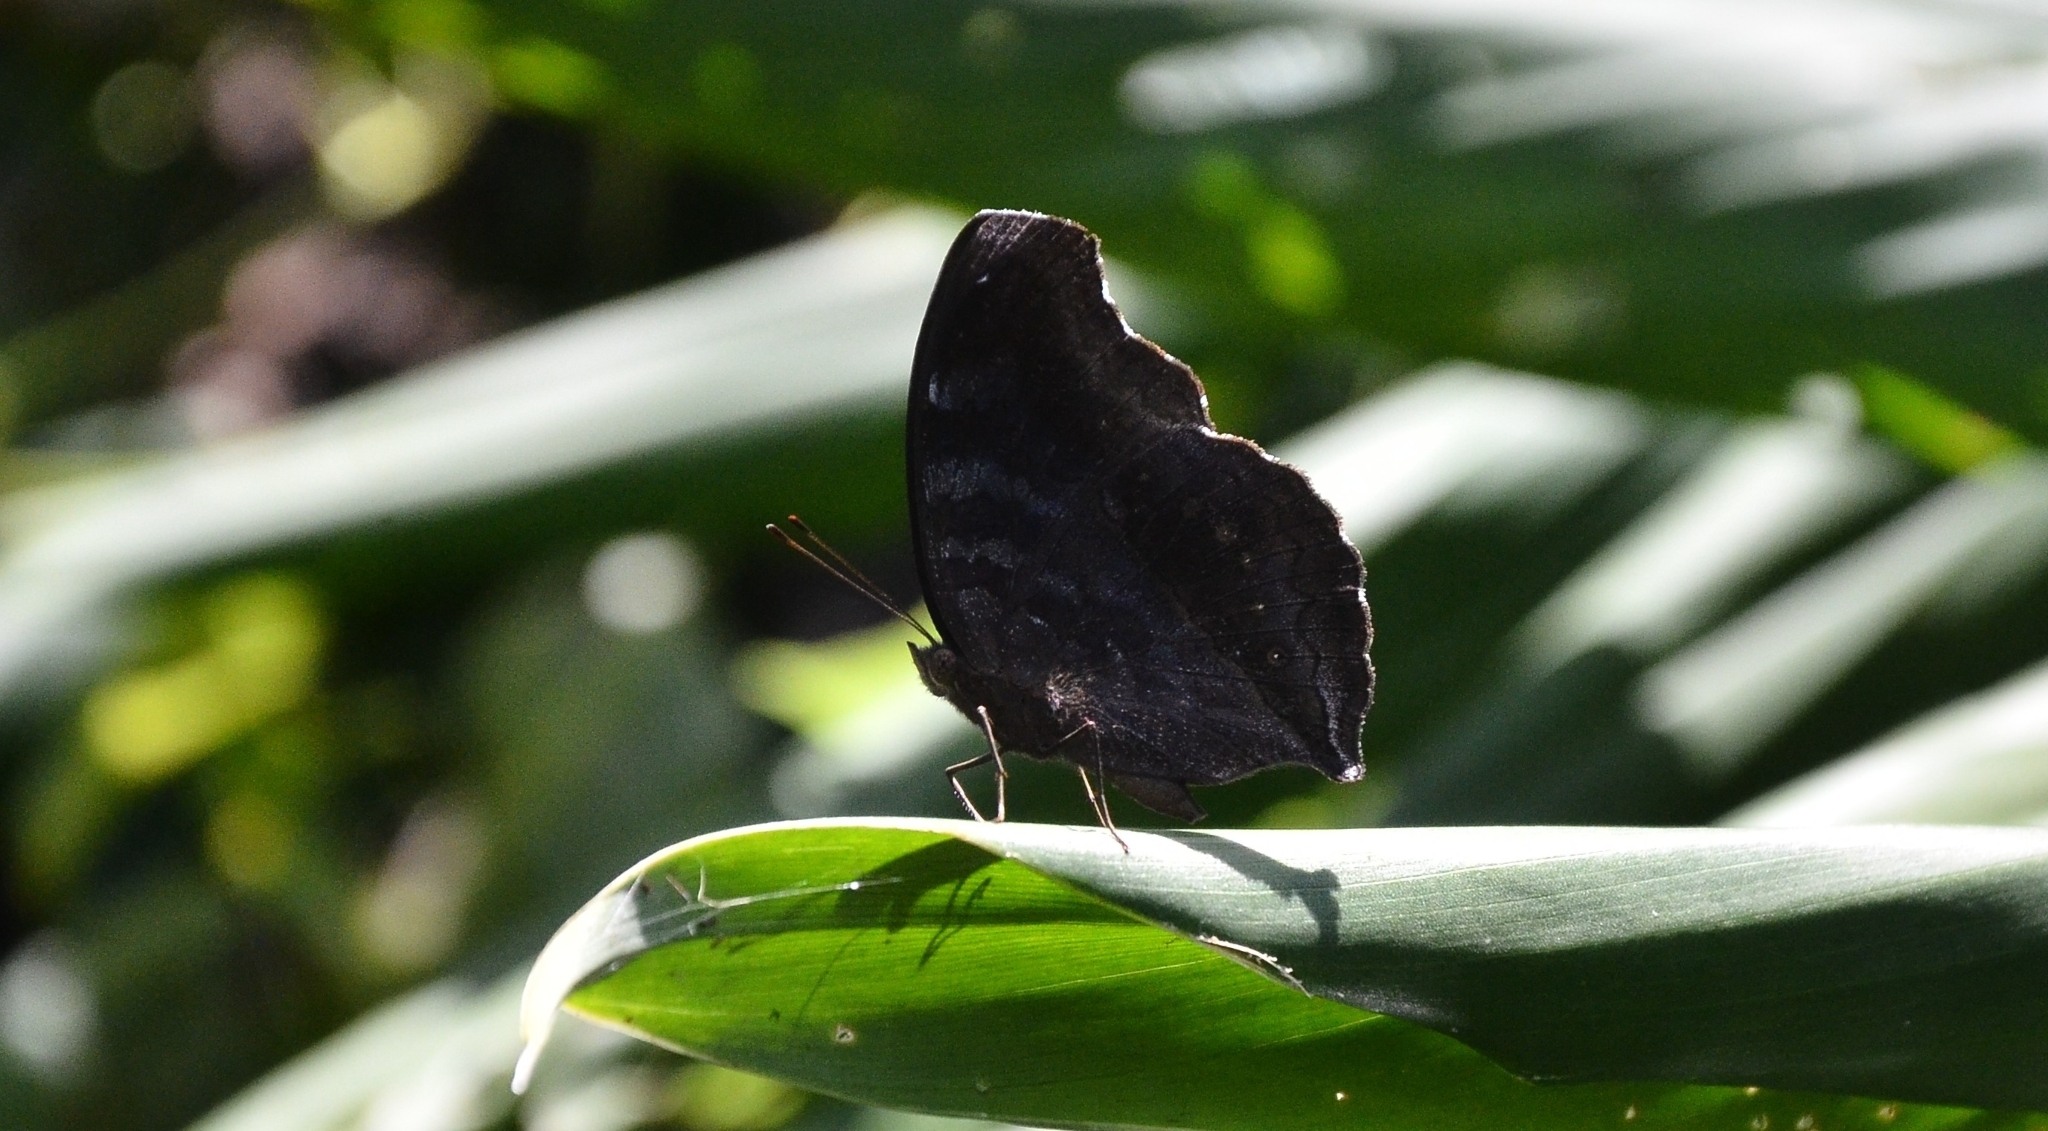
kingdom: Animalia
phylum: Arthropoda
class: Insecta
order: Lepidoptera
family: Nymphalidae
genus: Junonia
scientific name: Junonia iphita
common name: Chocolate pansy
